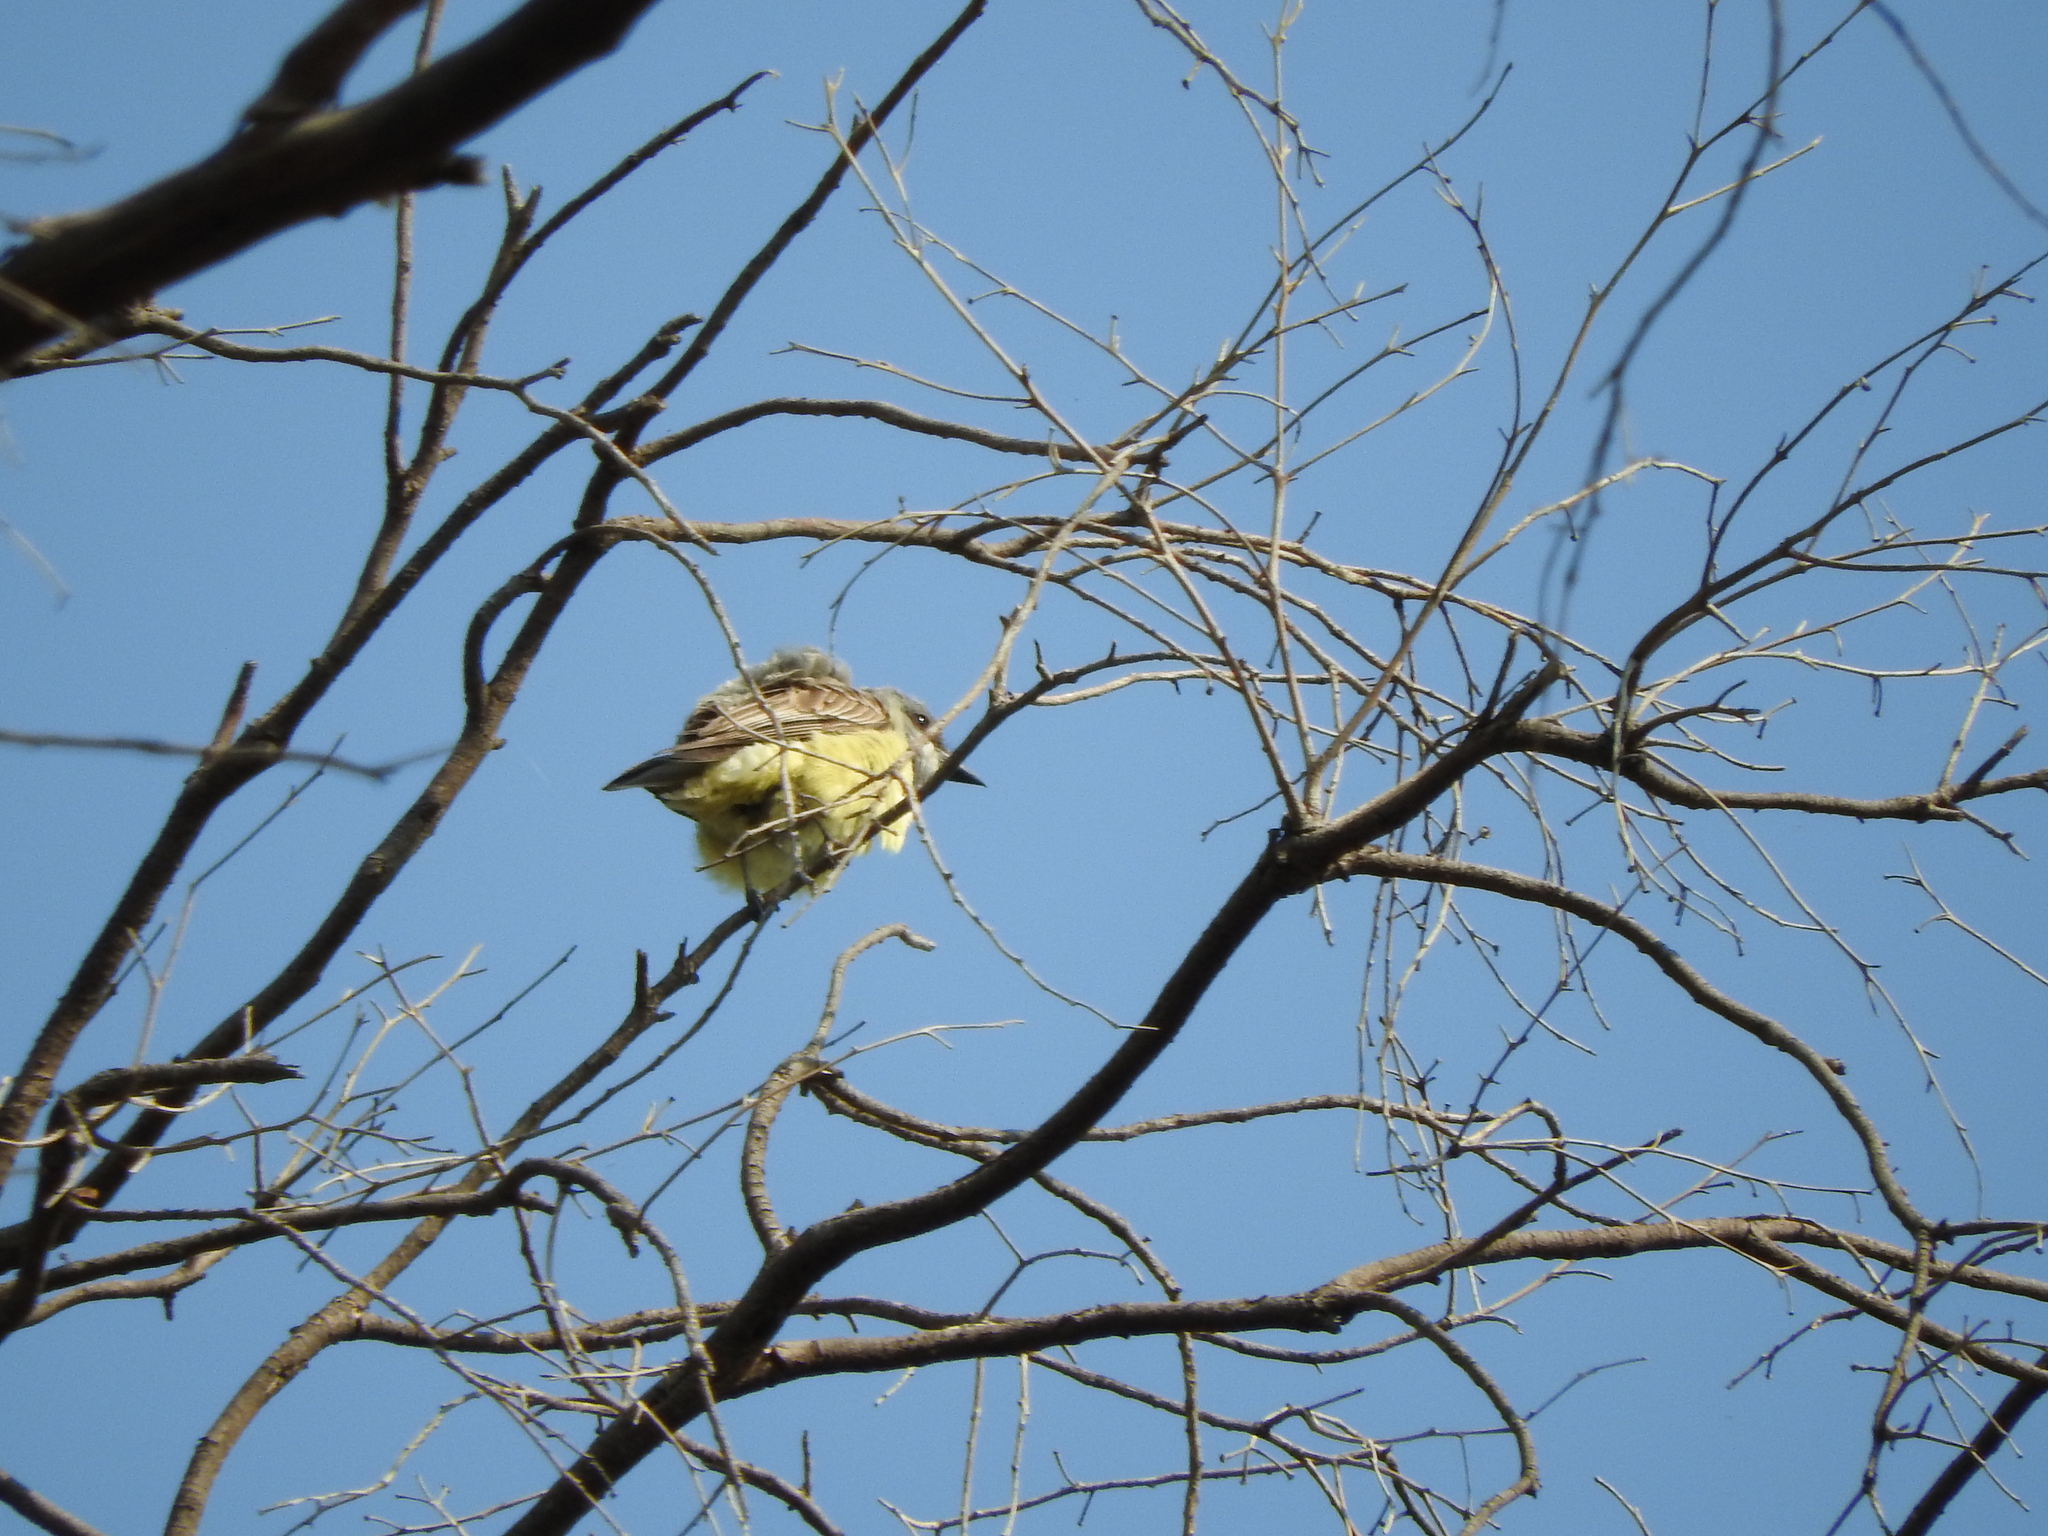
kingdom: Animalia
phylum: Chordata
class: Aves
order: Passeriformes
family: Tyrannidae
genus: Tyrannus
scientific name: Tyrannus vociferans
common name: Cassin's kingbird
